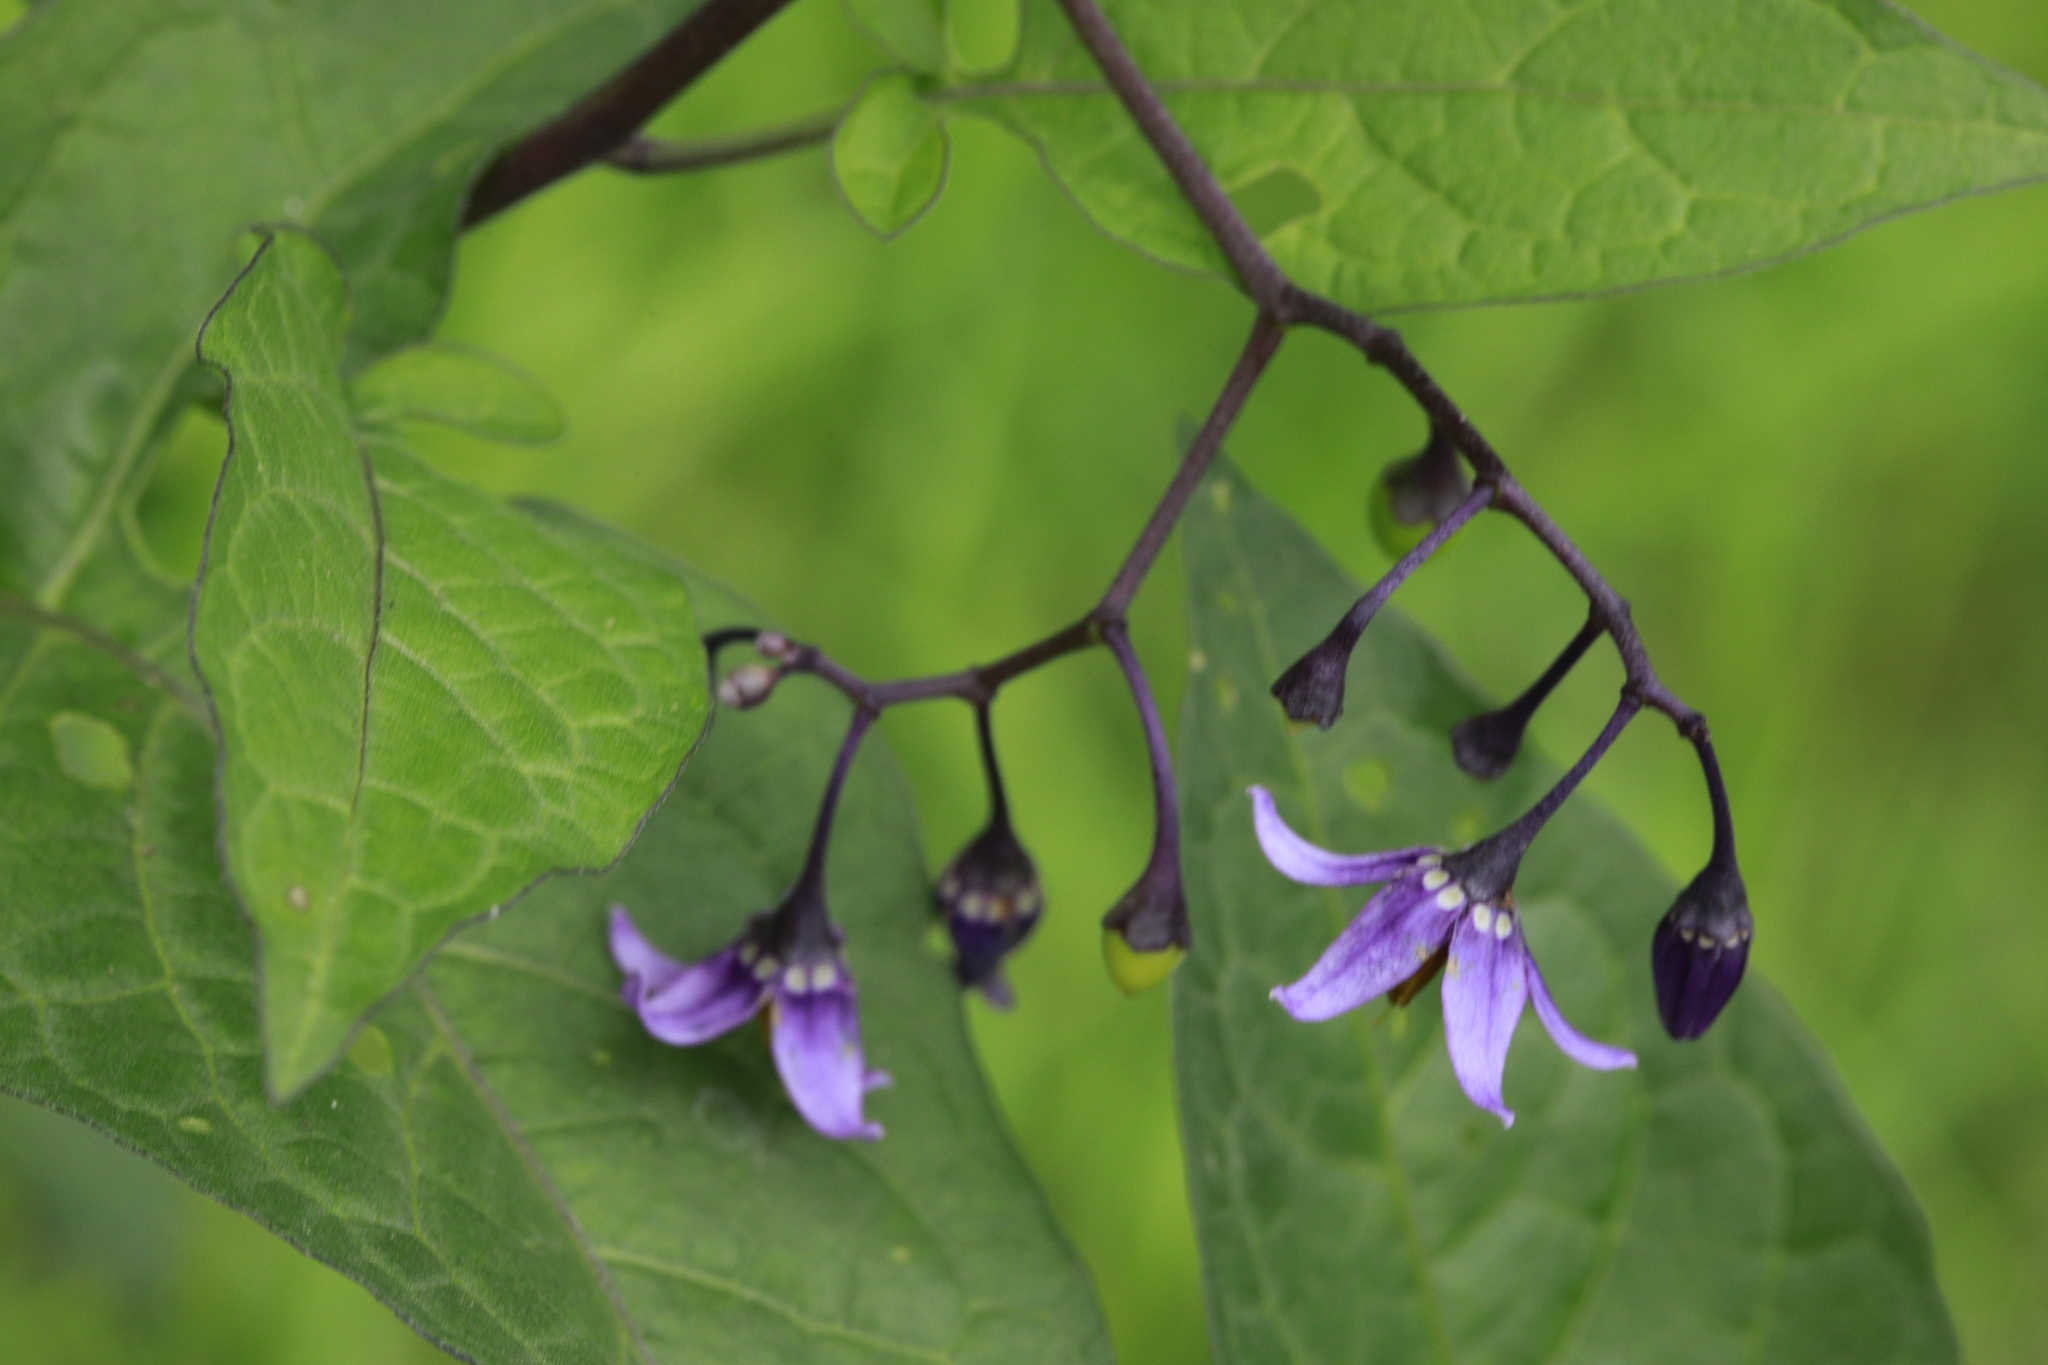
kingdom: Plantae
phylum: Tracheophyta
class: Magnoliopsida
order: Solanales
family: Solanaceae
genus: Solanum
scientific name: Solanum dulcamara
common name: Climbing nightshade
